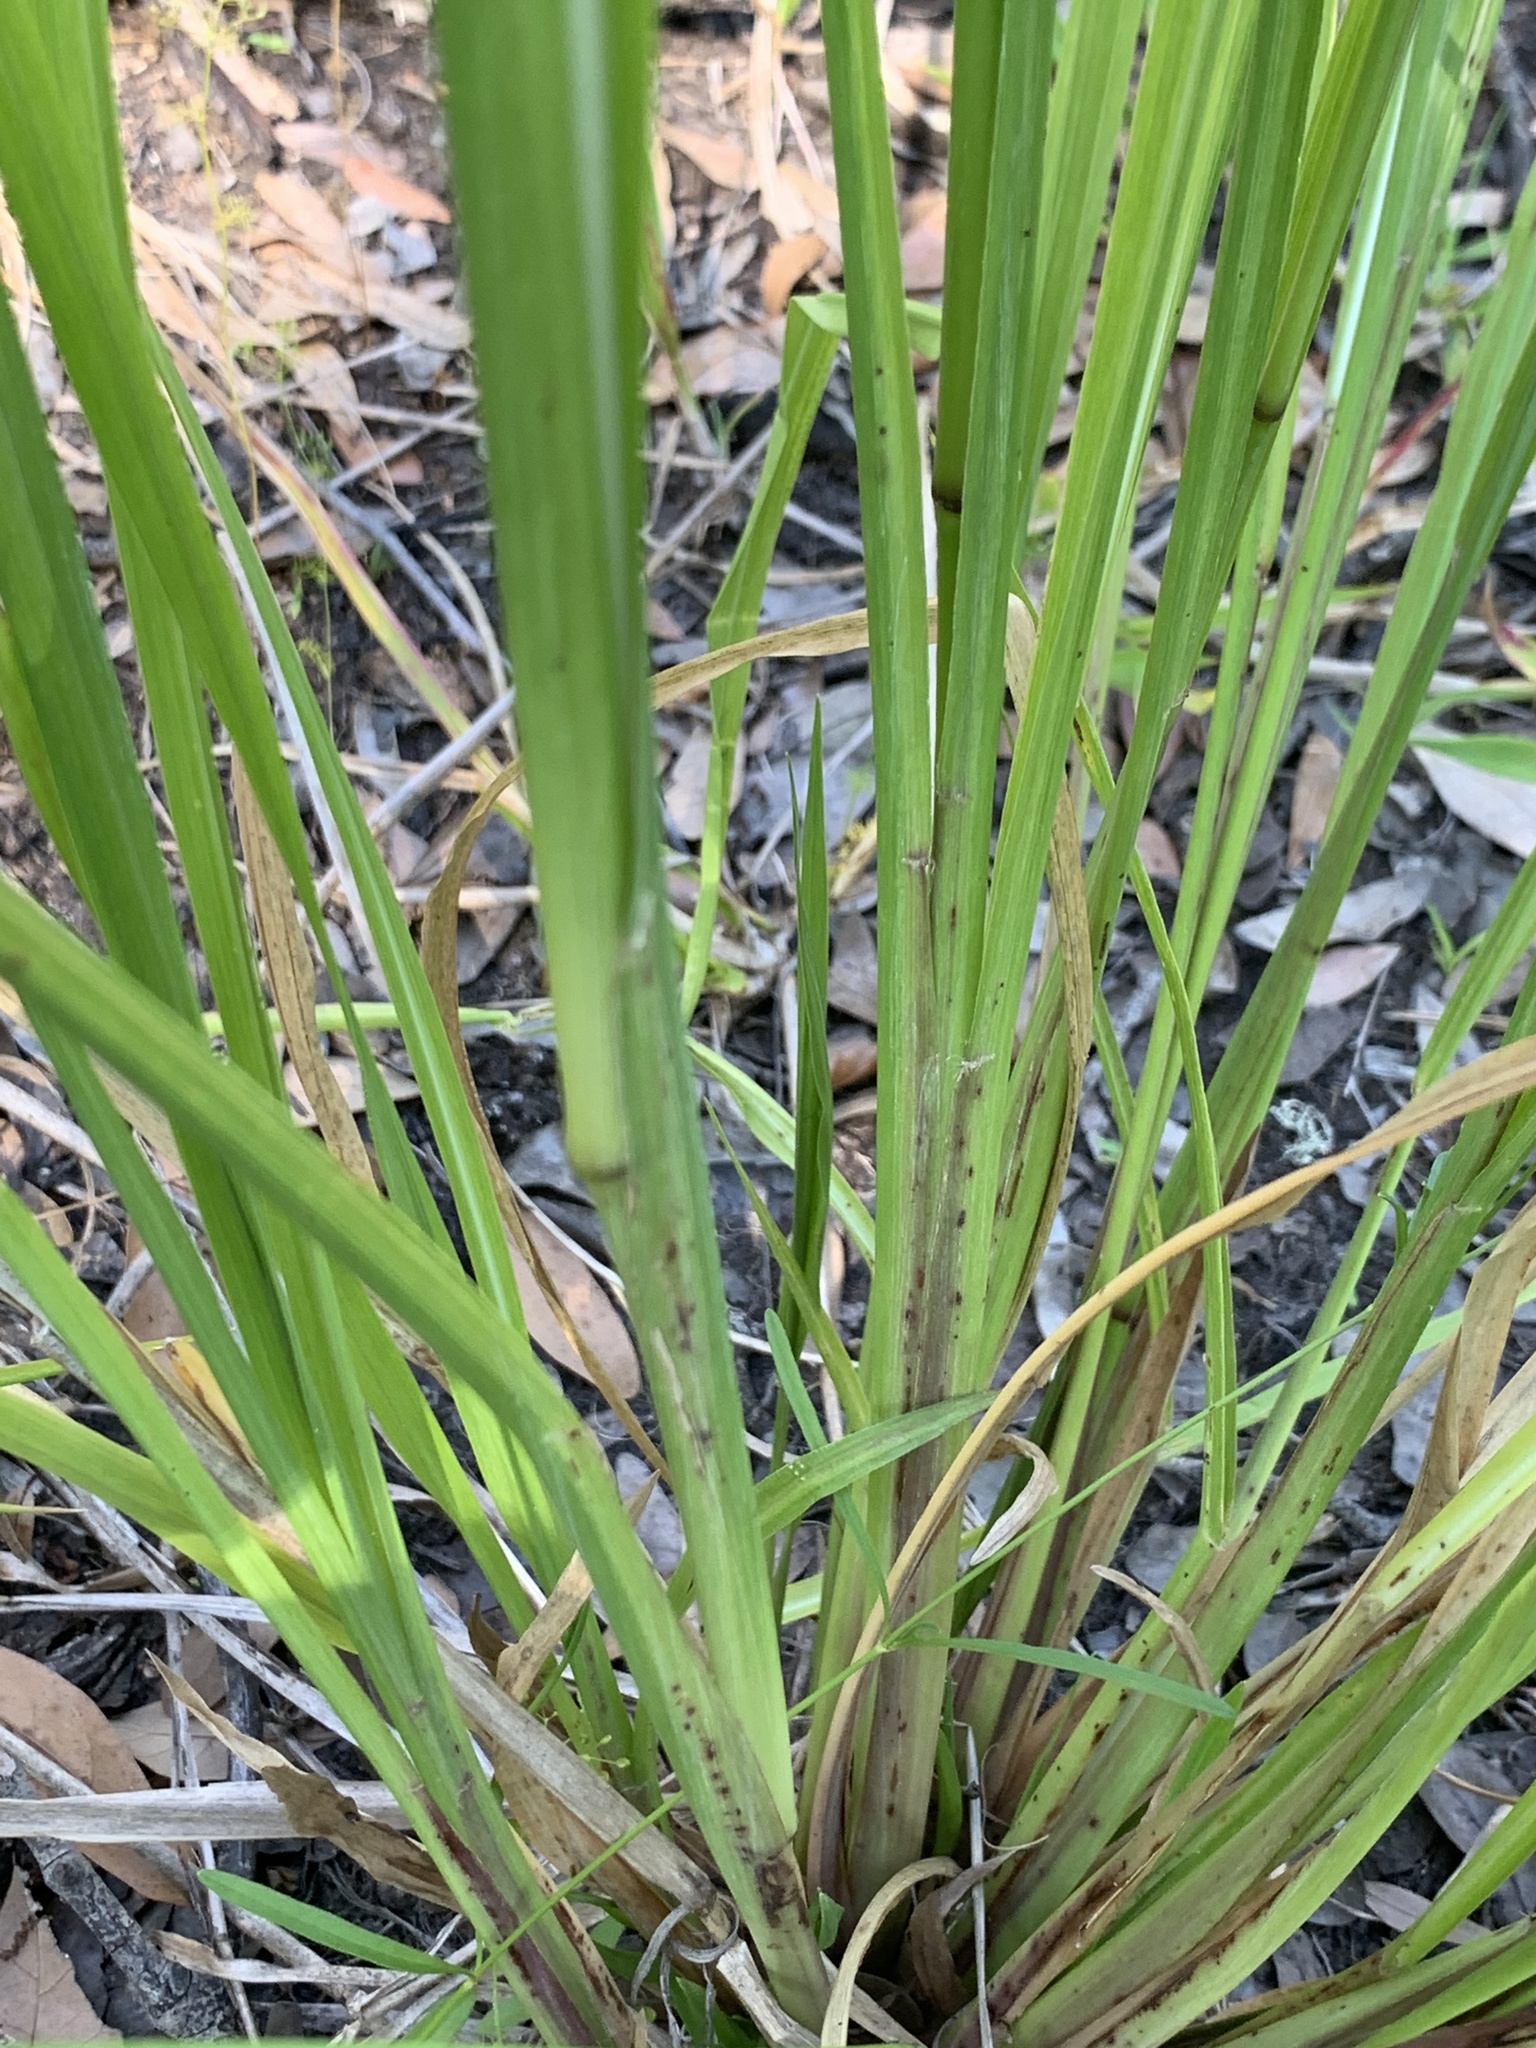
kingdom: Plantae
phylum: Tracheophyta
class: Liliopsida
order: Poales
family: Poaceae
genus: Coleataenia
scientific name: Coleataenia rigidula
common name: Redtop panicgrass
